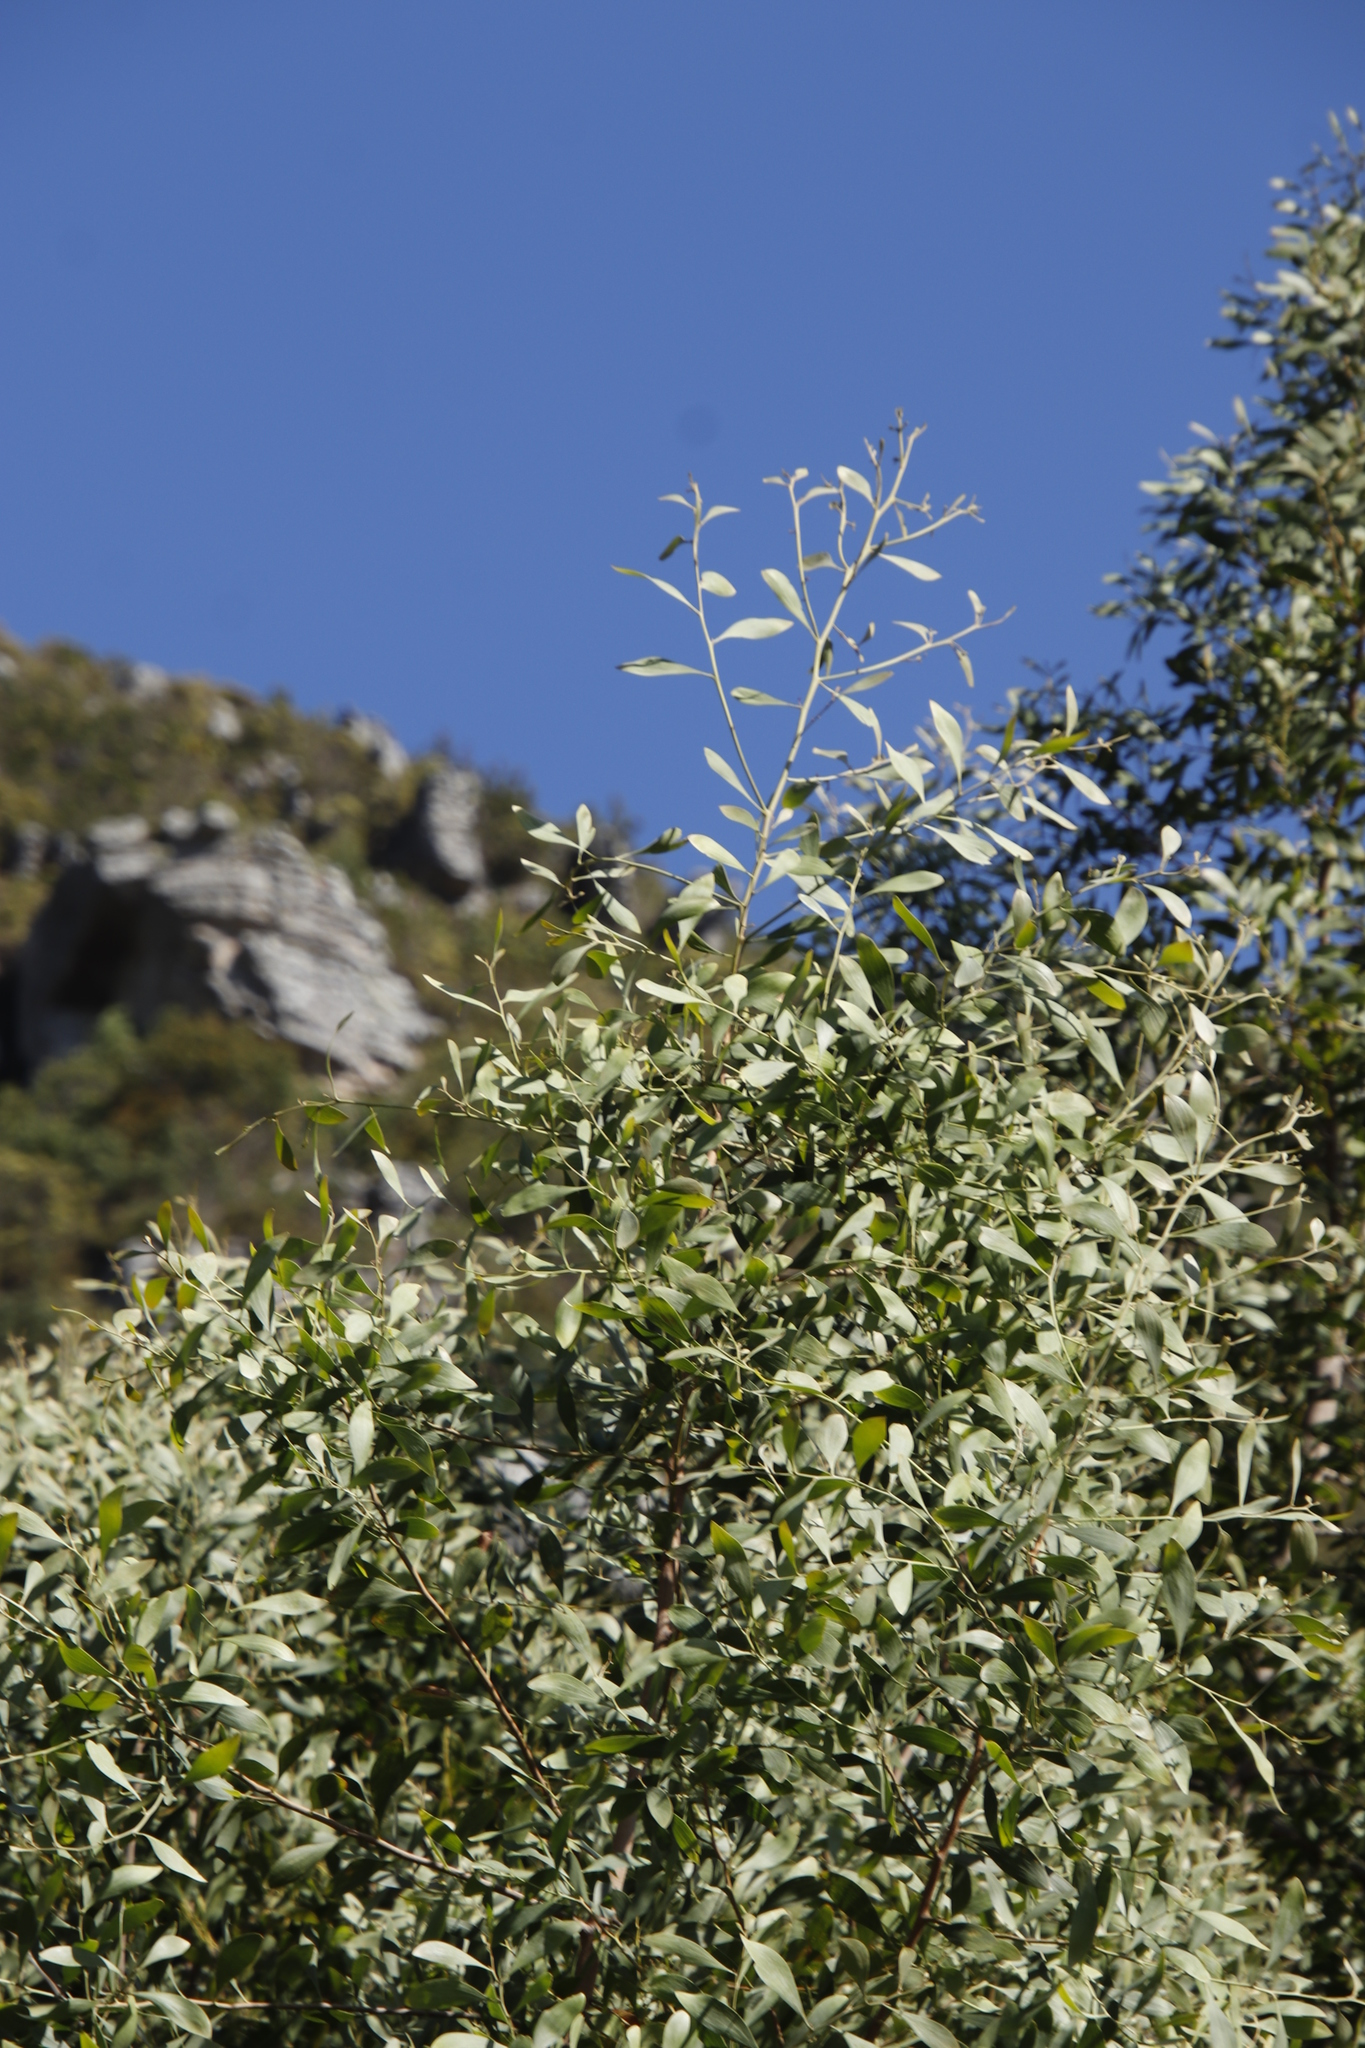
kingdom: Plantae
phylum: Tracheophyta
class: Magnoliopsida
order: Fabales
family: Fabaceae
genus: Acacia
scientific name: Acacia melanoxylon
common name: Blackwood
